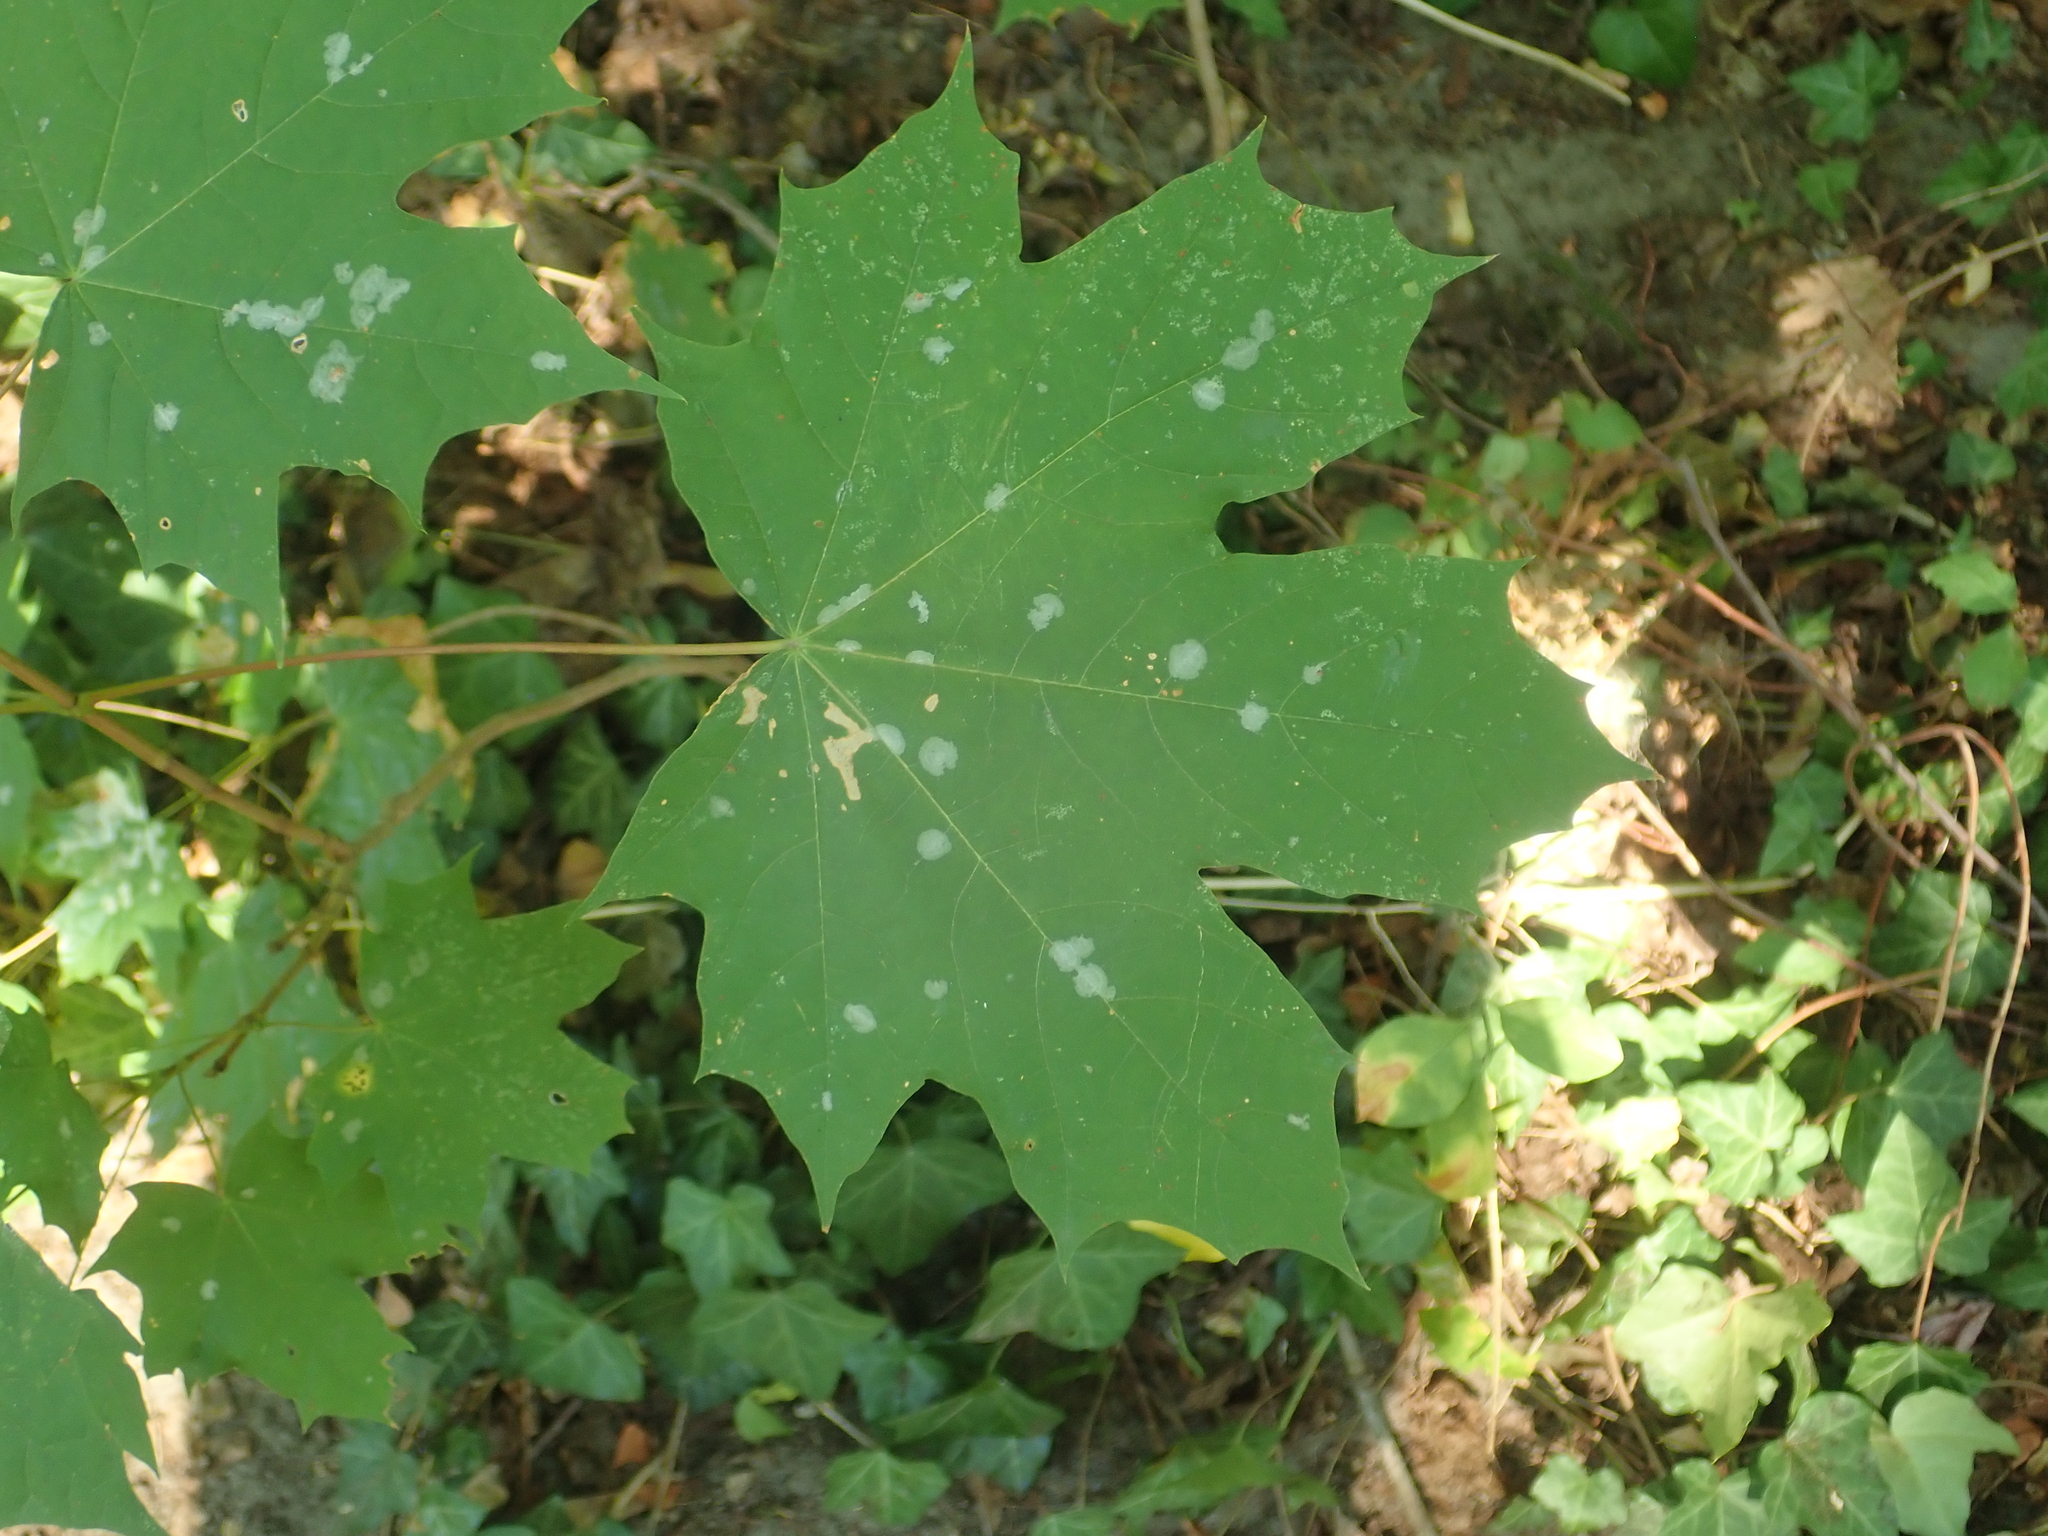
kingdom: Plantae
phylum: Tracheophyta
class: Magnoliopsida
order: Sapindales
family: Sapindaceae
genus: Acer
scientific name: Acer platanoides
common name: Norway maple
